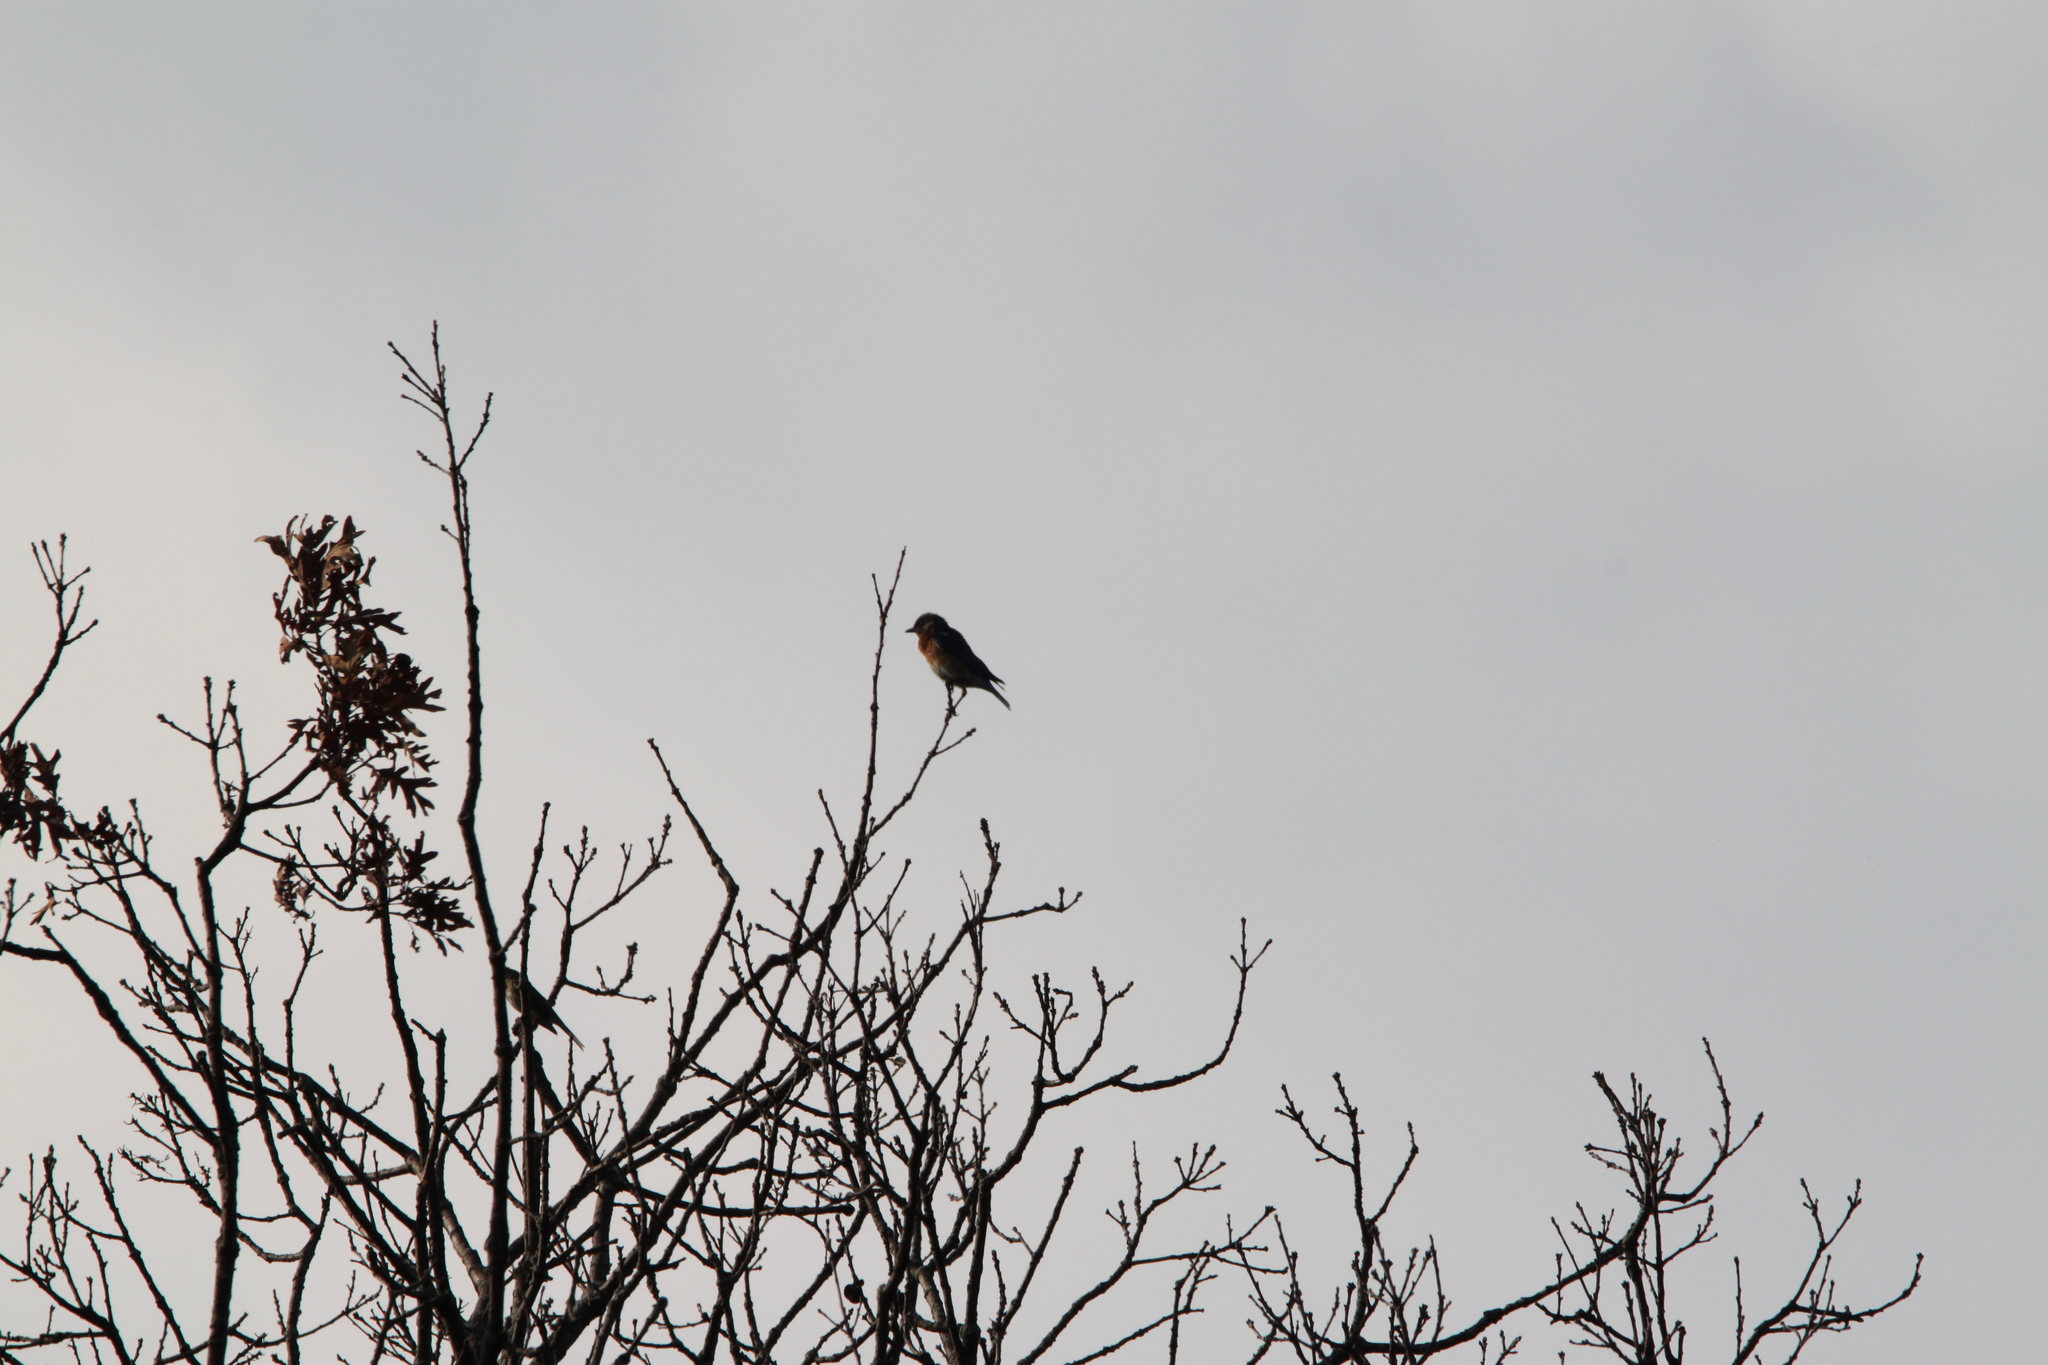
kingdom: Animalia
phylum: Chordata
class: Aves
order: Passeriformes
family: Turdidae
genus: Sialia
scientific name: Sialia sialis
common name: Eastern bluebird
